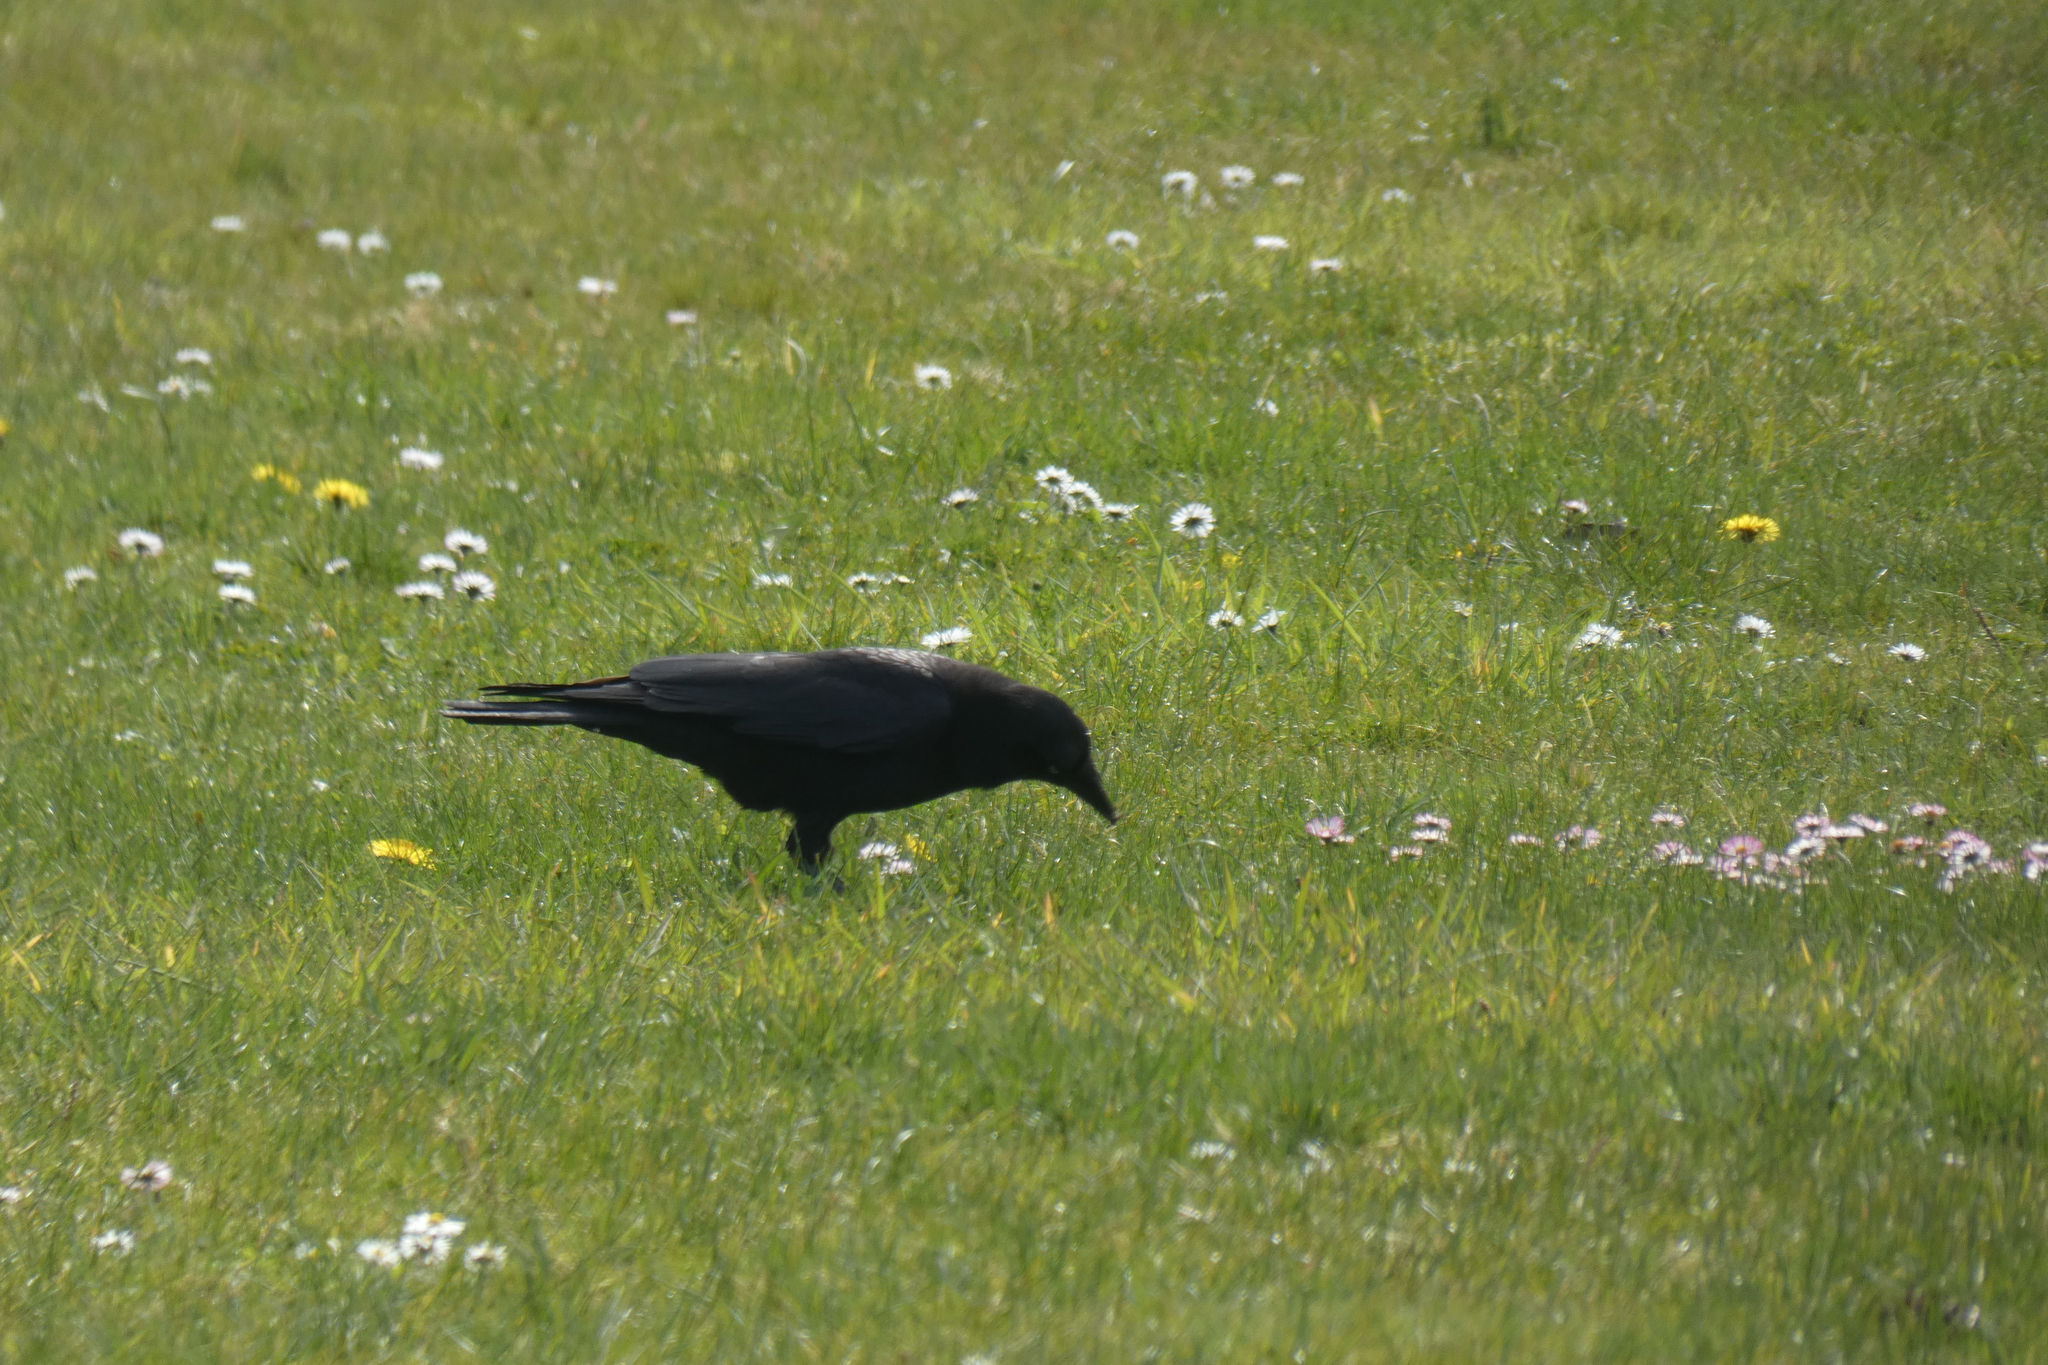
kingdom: Animalia
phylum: Chordata
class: Aves
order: Passeriformes
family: Corvidae
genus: Corvus
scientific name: Corvus brachyrhynchos
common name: American crow
